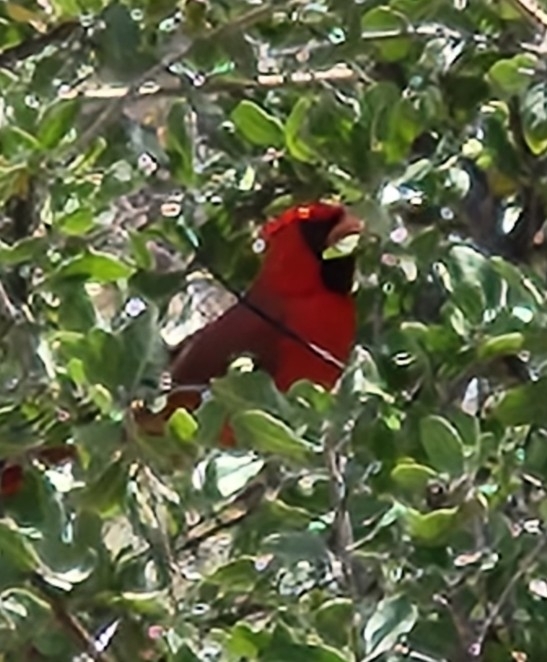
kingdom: Animalia
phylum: Chordata
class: Aves
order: Passeriformes
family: Cardinalidae
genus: Cardinalis
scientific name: Cardinalis cardinalis
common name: Northern cardinal
